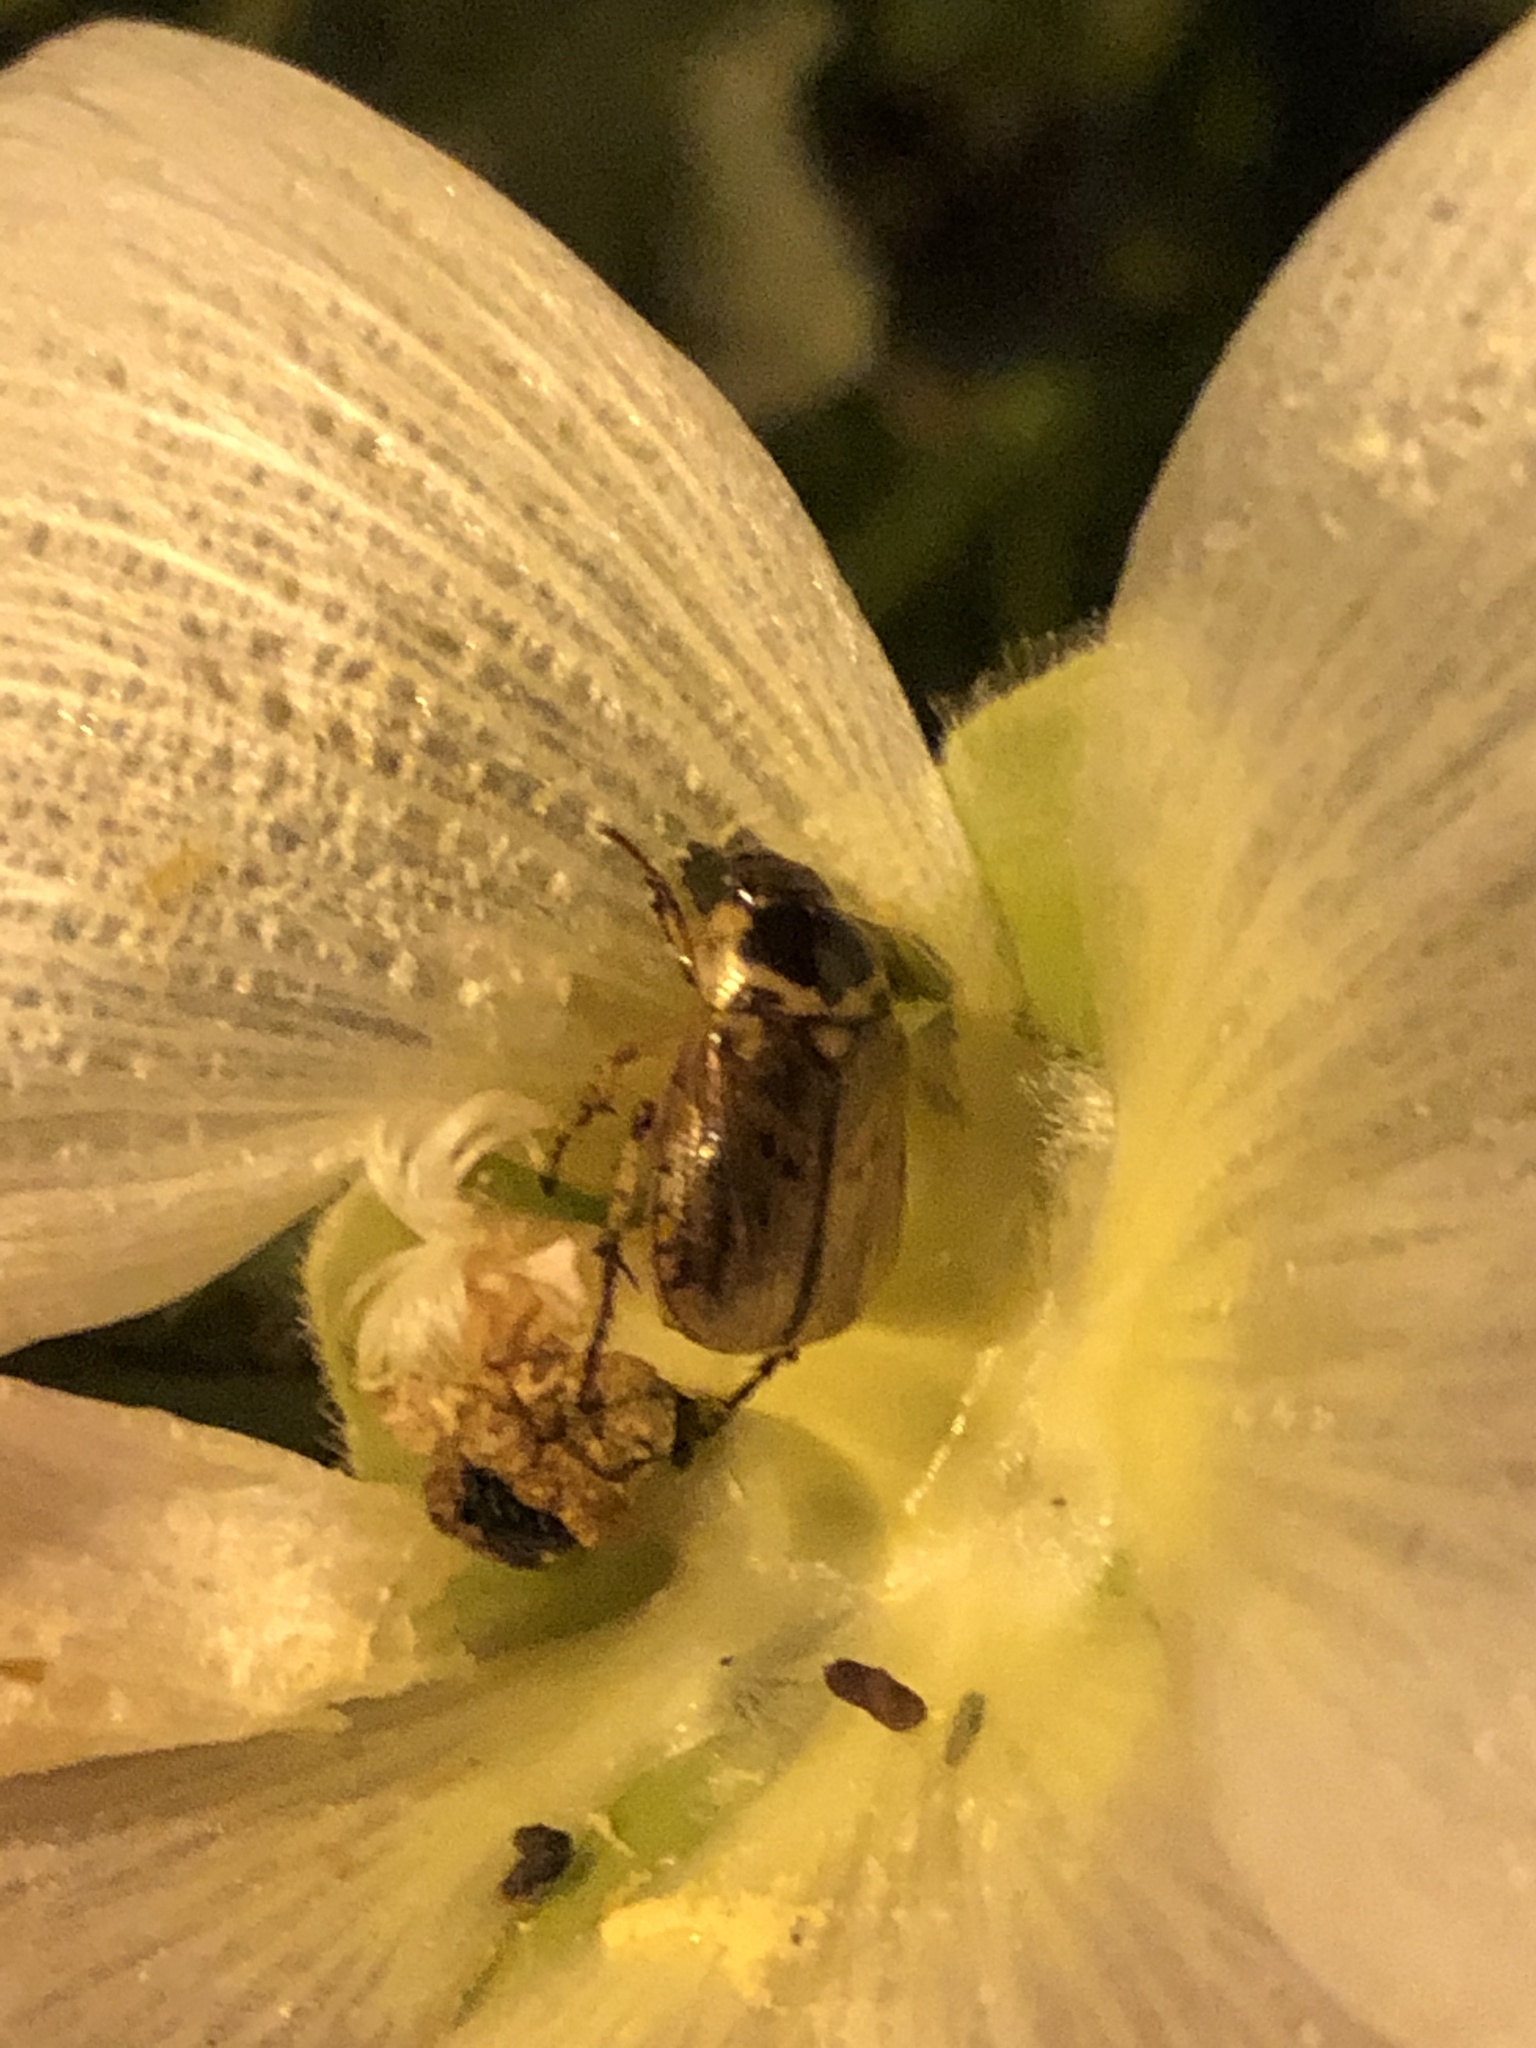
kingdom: Animalia
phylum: Arthropoda
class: Insecta
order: Coleoptera
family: Scarabaeidae
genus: Paranomala
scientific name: Paranomala undulata
